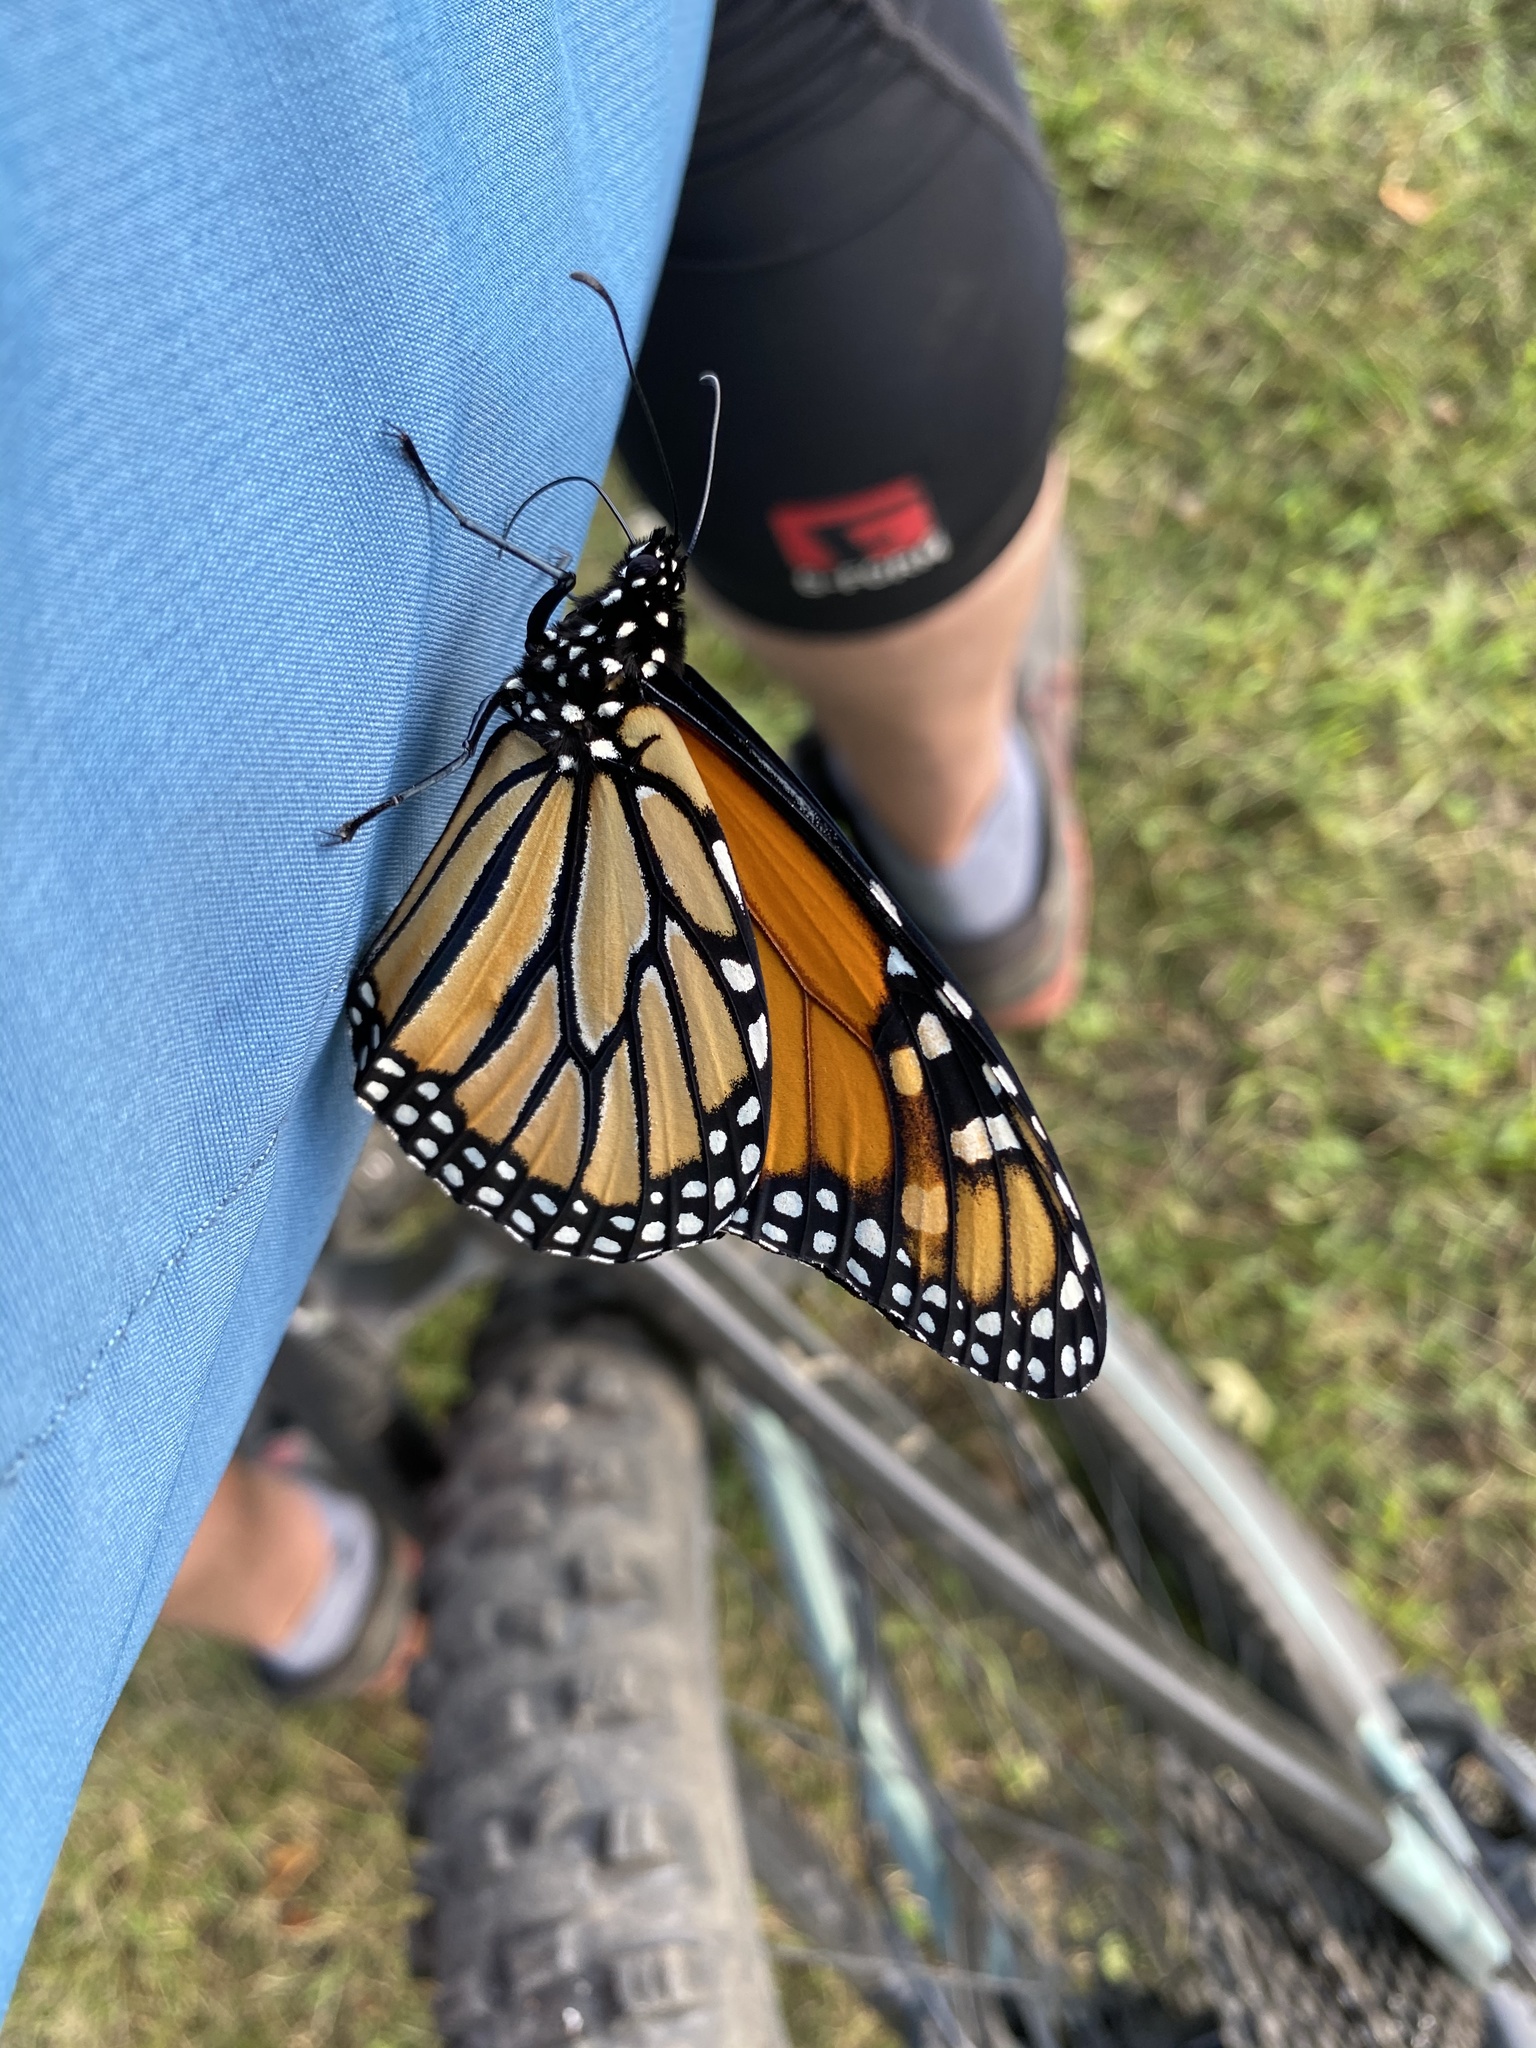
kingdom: Animalia
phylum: Arthropoda
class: Insecta
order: Lepidoptera
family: Nymphalidae
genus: Danaus
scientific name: Danaus plexippus
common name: Monarch
